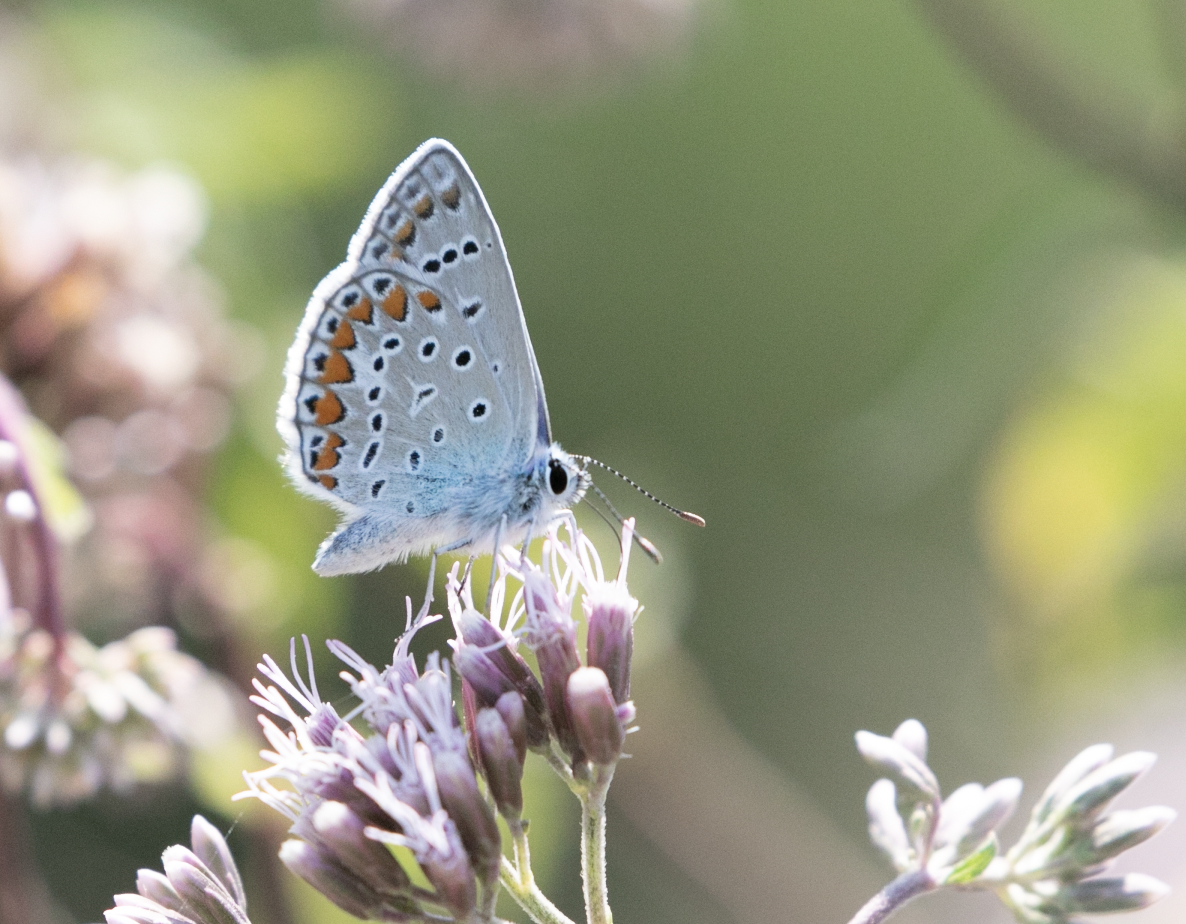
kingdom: Animalia
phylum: Arthropoda
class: Insecta
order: Lepidoptera
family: Lycaenidae
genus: Polyommatus
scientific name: Polyommatus icarus
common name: Common blue
